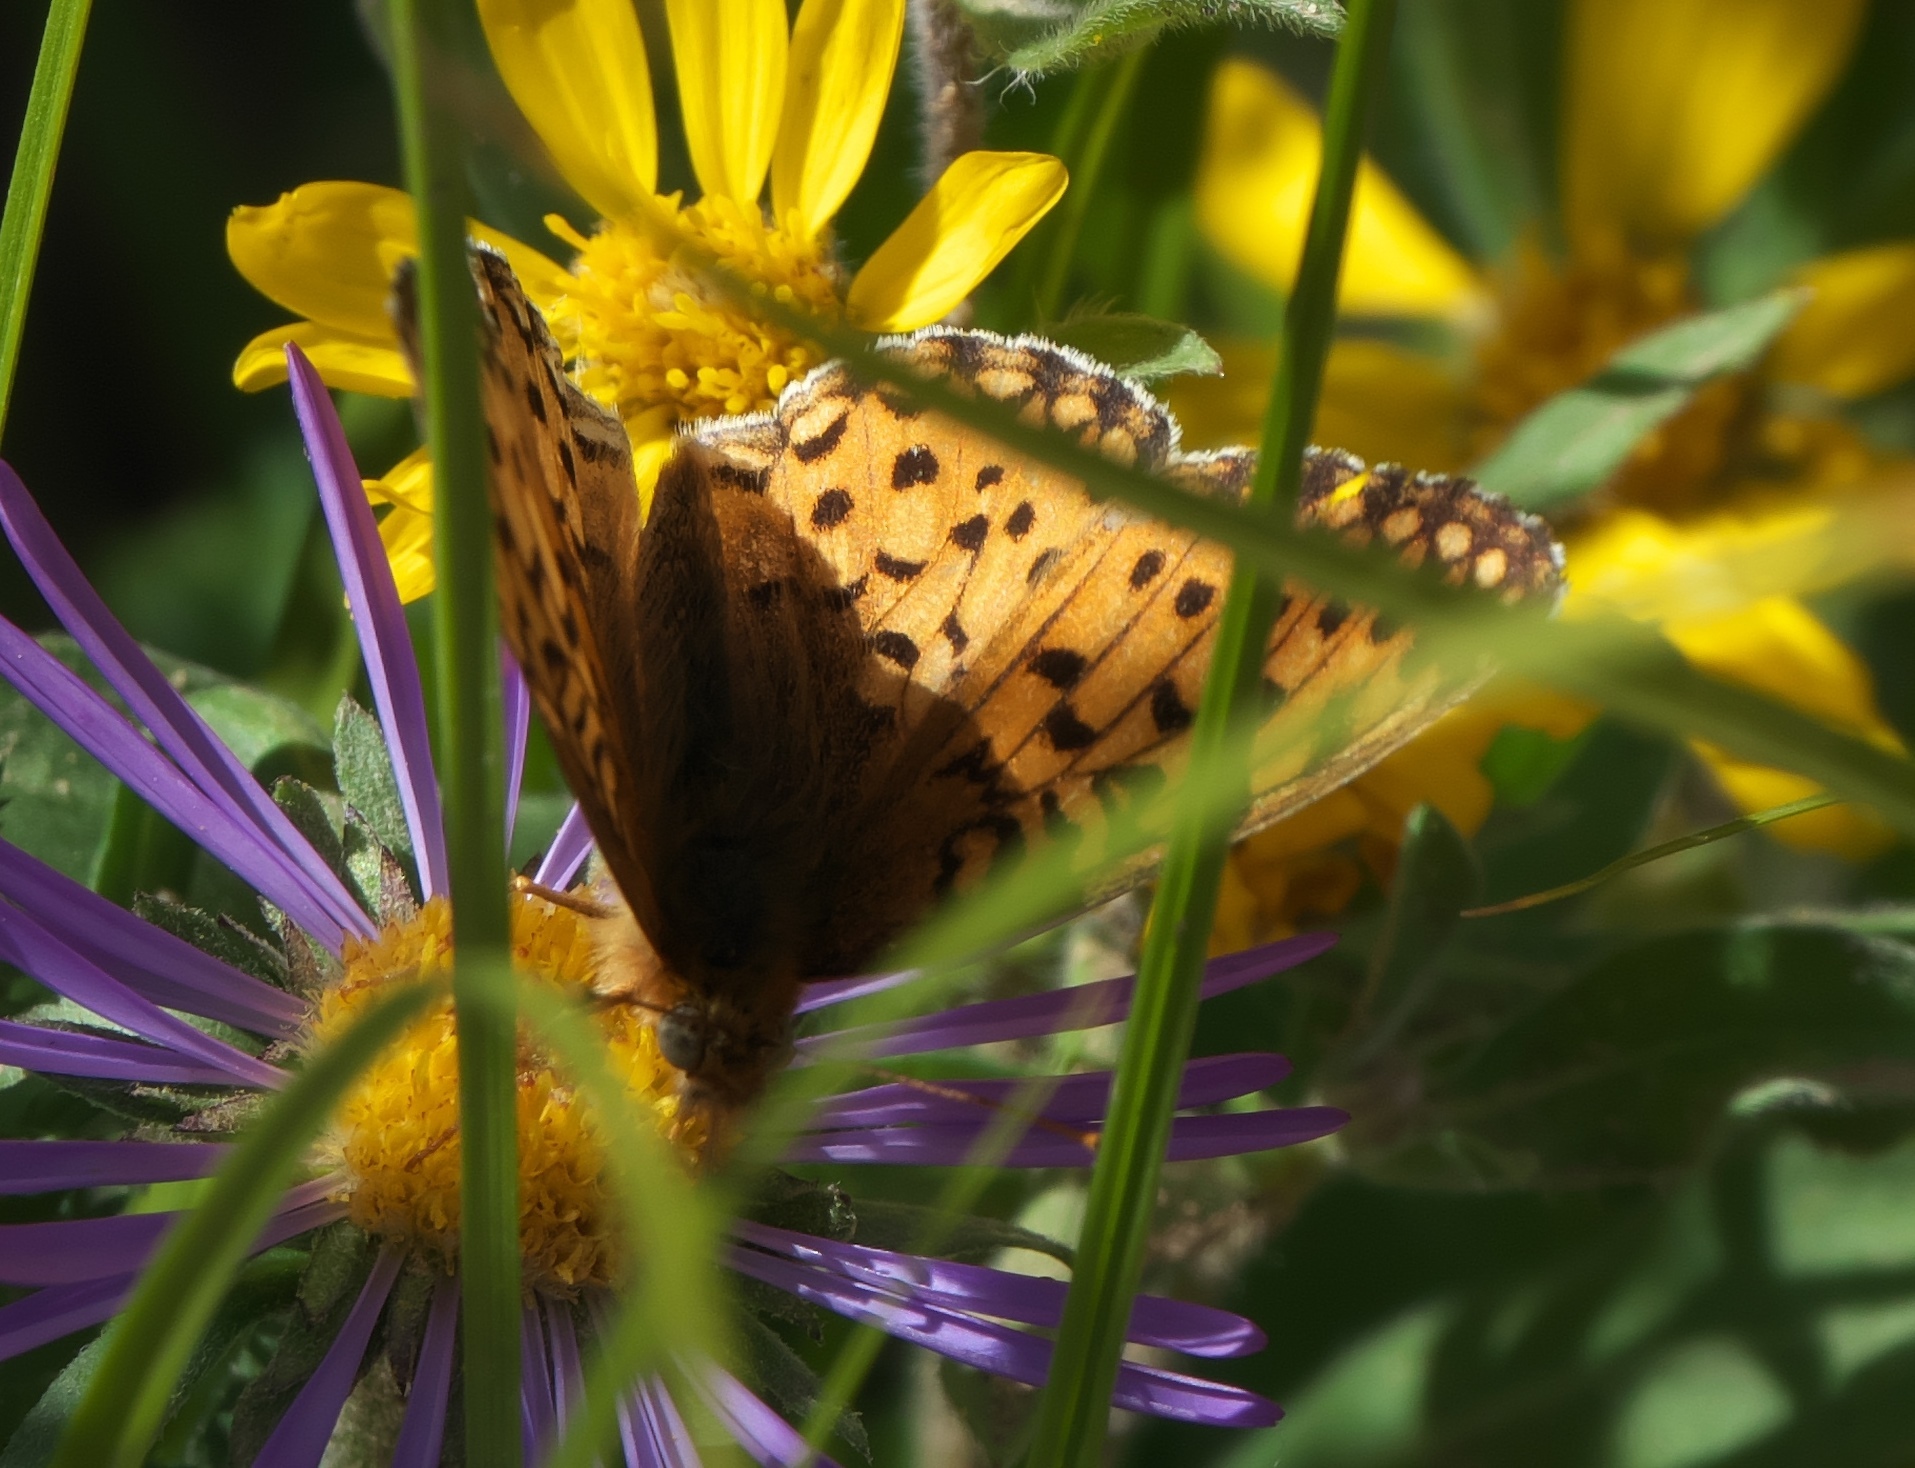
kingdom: Animalia
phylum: Arthropoda
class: Insecta
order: Lepidoptera
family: Nymphalidae
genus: Speyeria
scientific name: Speyeria mormonia
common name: Mormon fritillary
